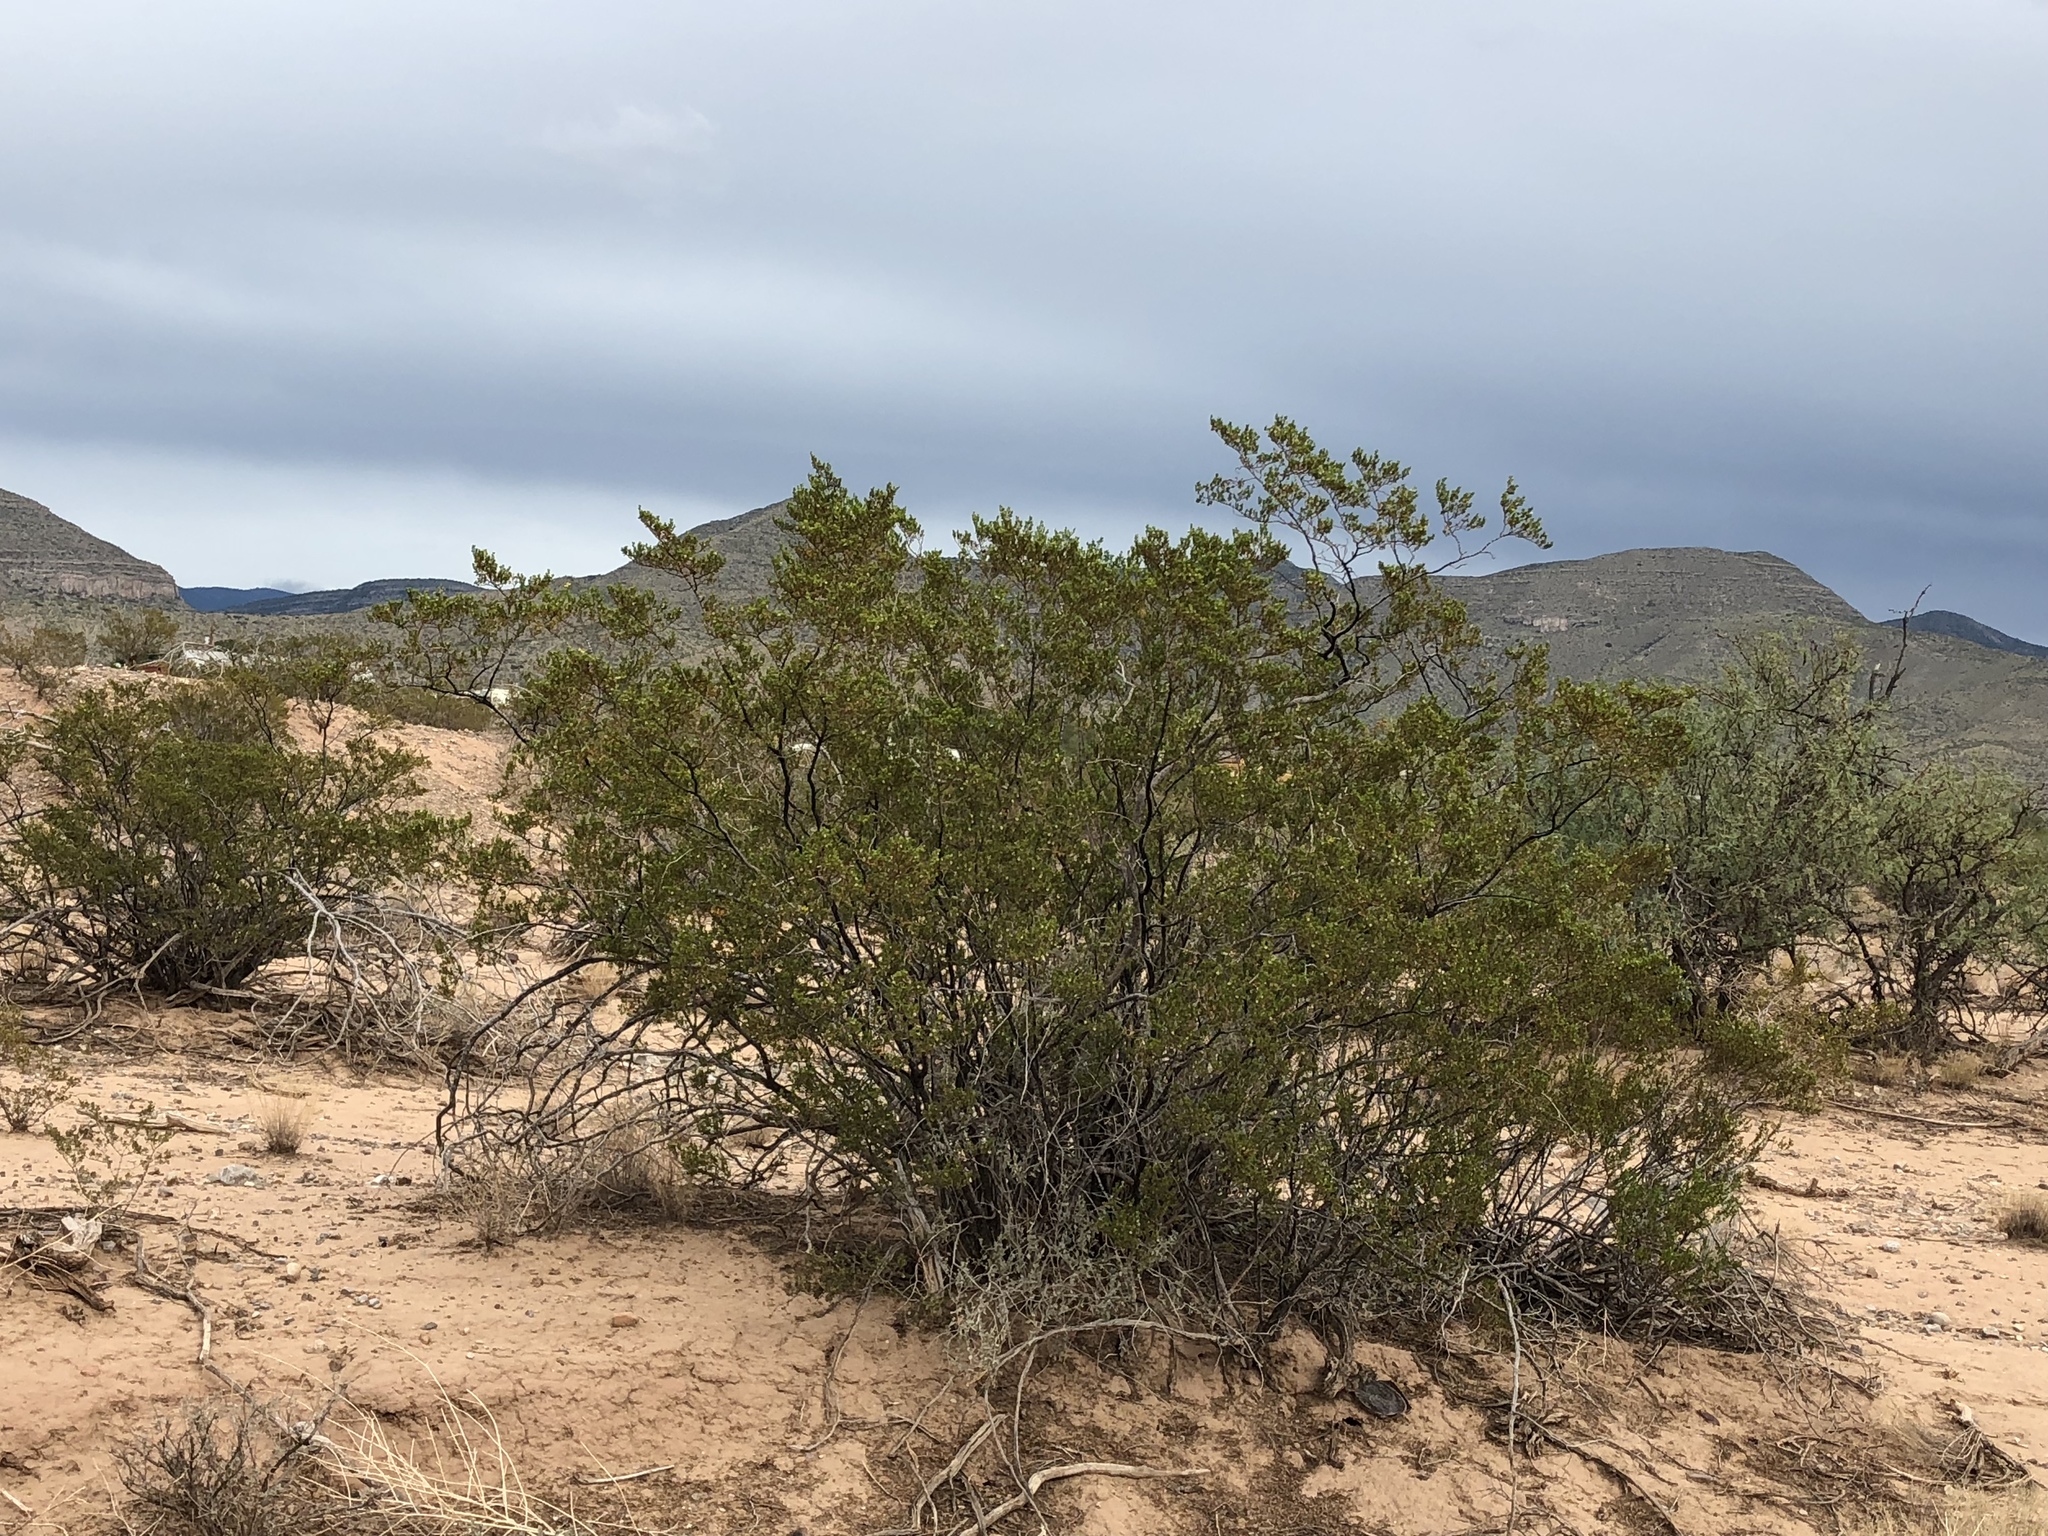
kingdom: Plantae
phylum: Tracheophyta
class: Magnoliopsida
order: Zygophyllales
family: Zygophyllaceae
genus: Larrea
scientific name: Larrea tridentata
